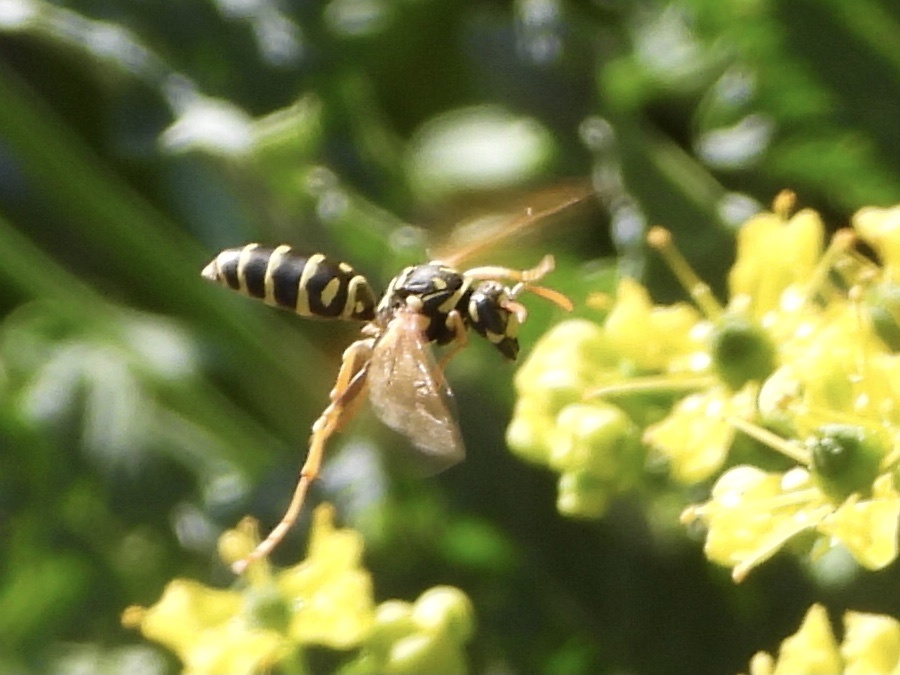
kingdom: Animalia
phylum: Arthropoda
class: Insecta
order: Hymenoptera
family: Eumenidae
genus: Polistes
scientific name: Polistes dominula
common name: Paper wasp
